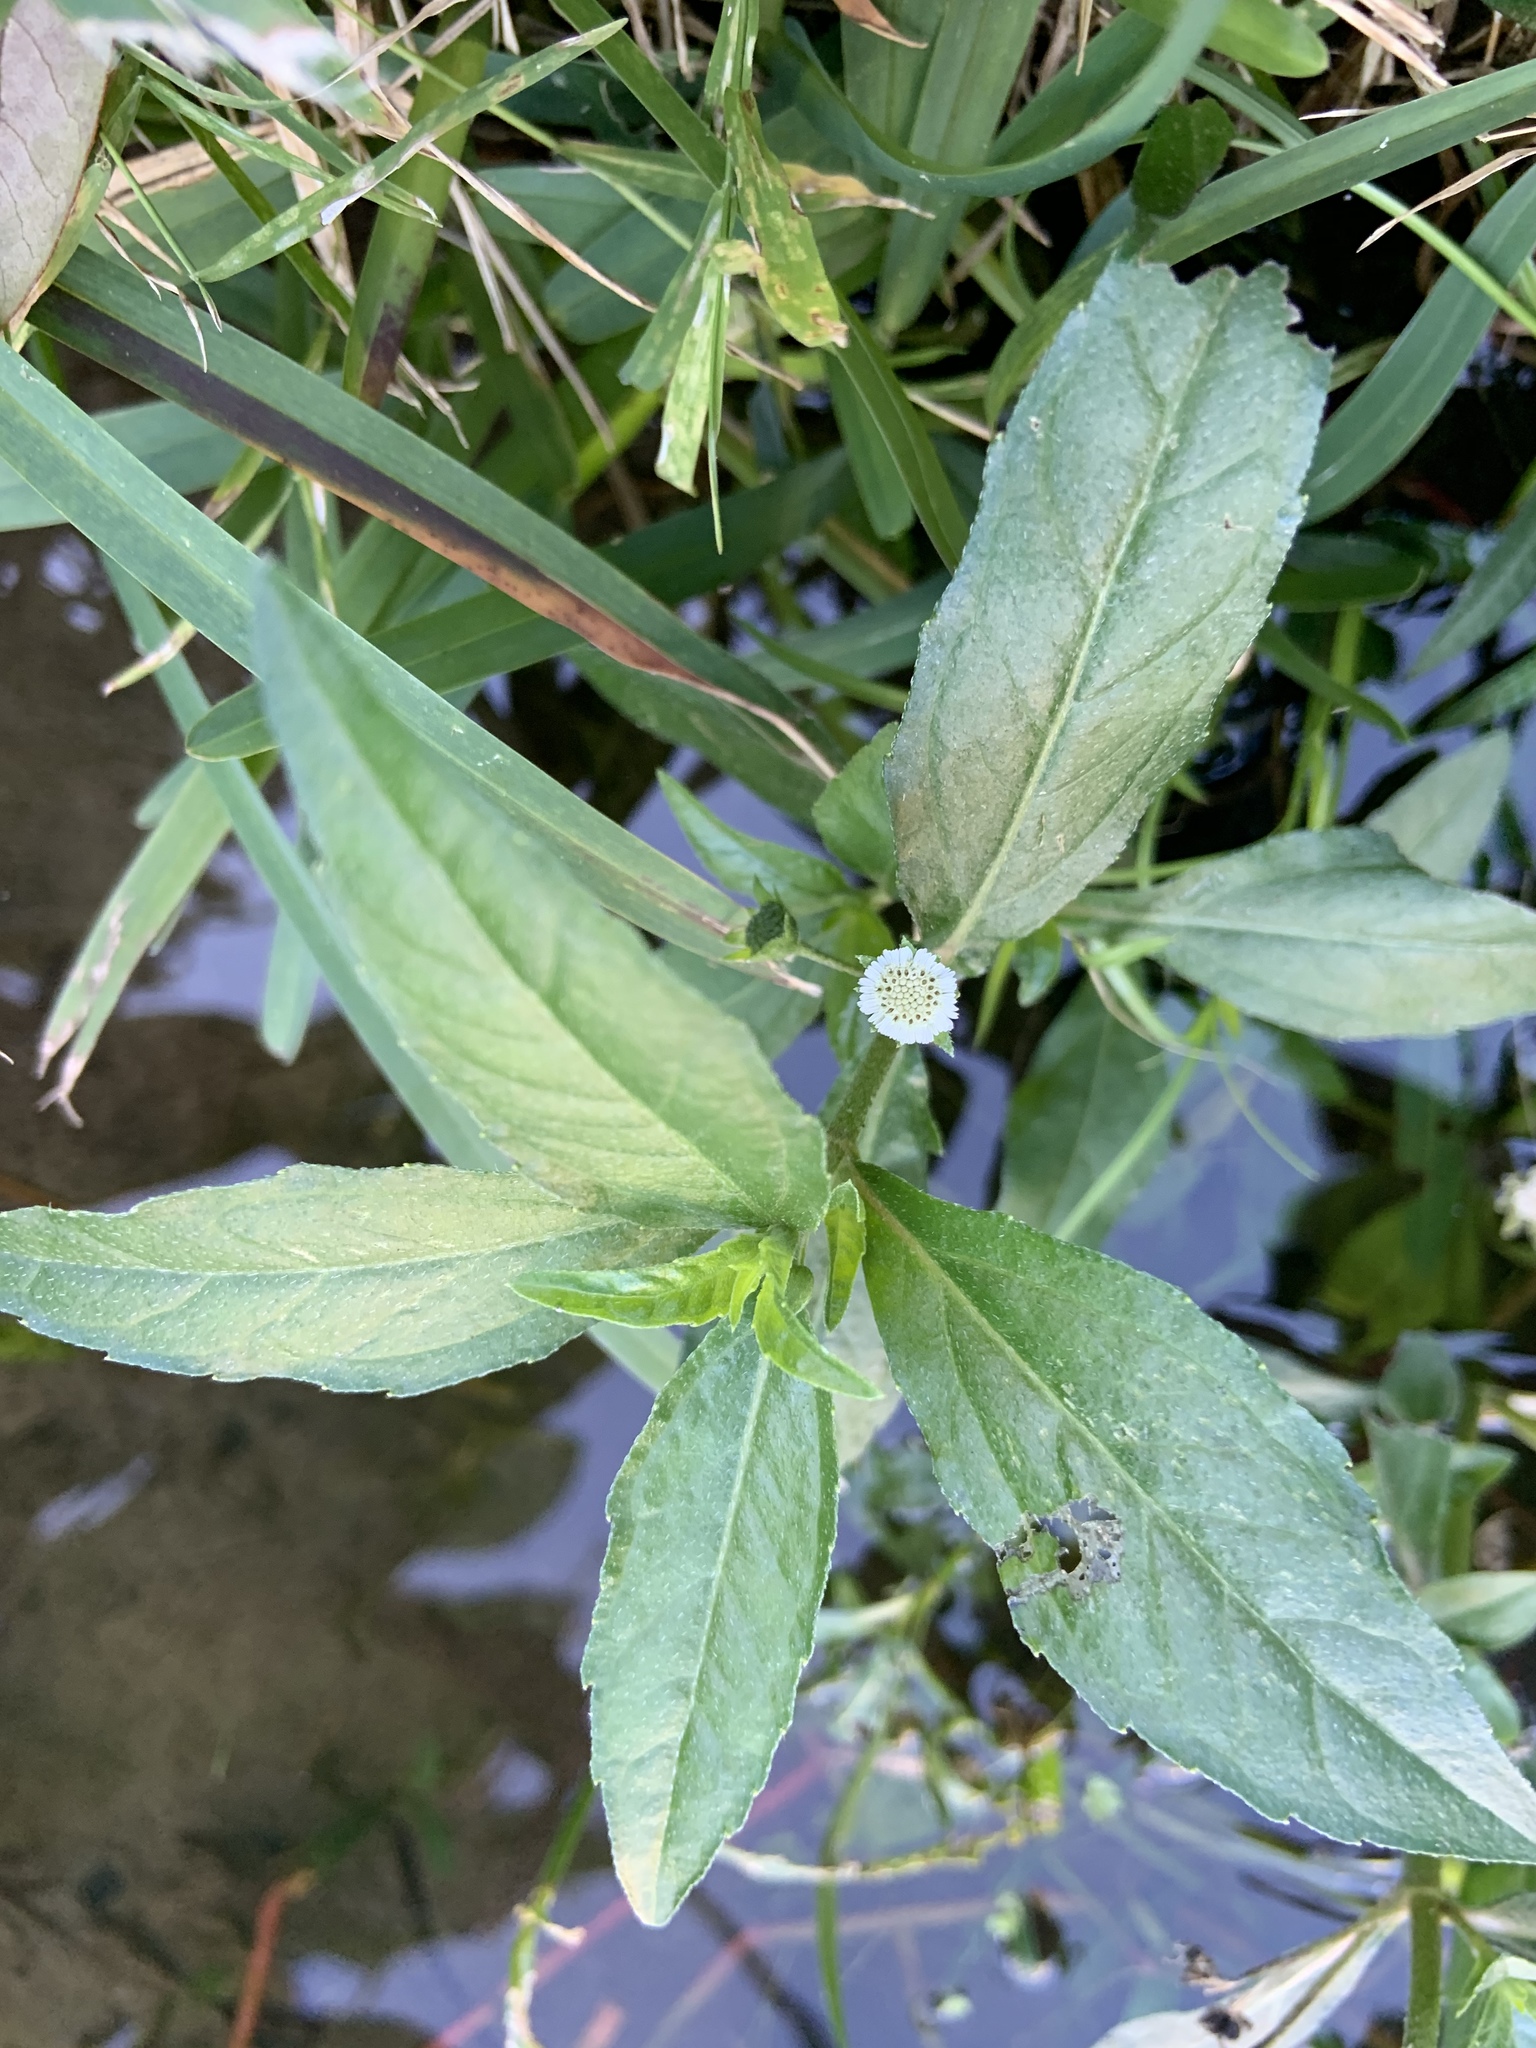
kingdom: Plantae
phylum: Tracheophyta
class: Magnoliopsida
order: Asterales
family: Asteraceae
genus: Eclipta
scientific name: Eclipta prostrata
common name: False daisy
